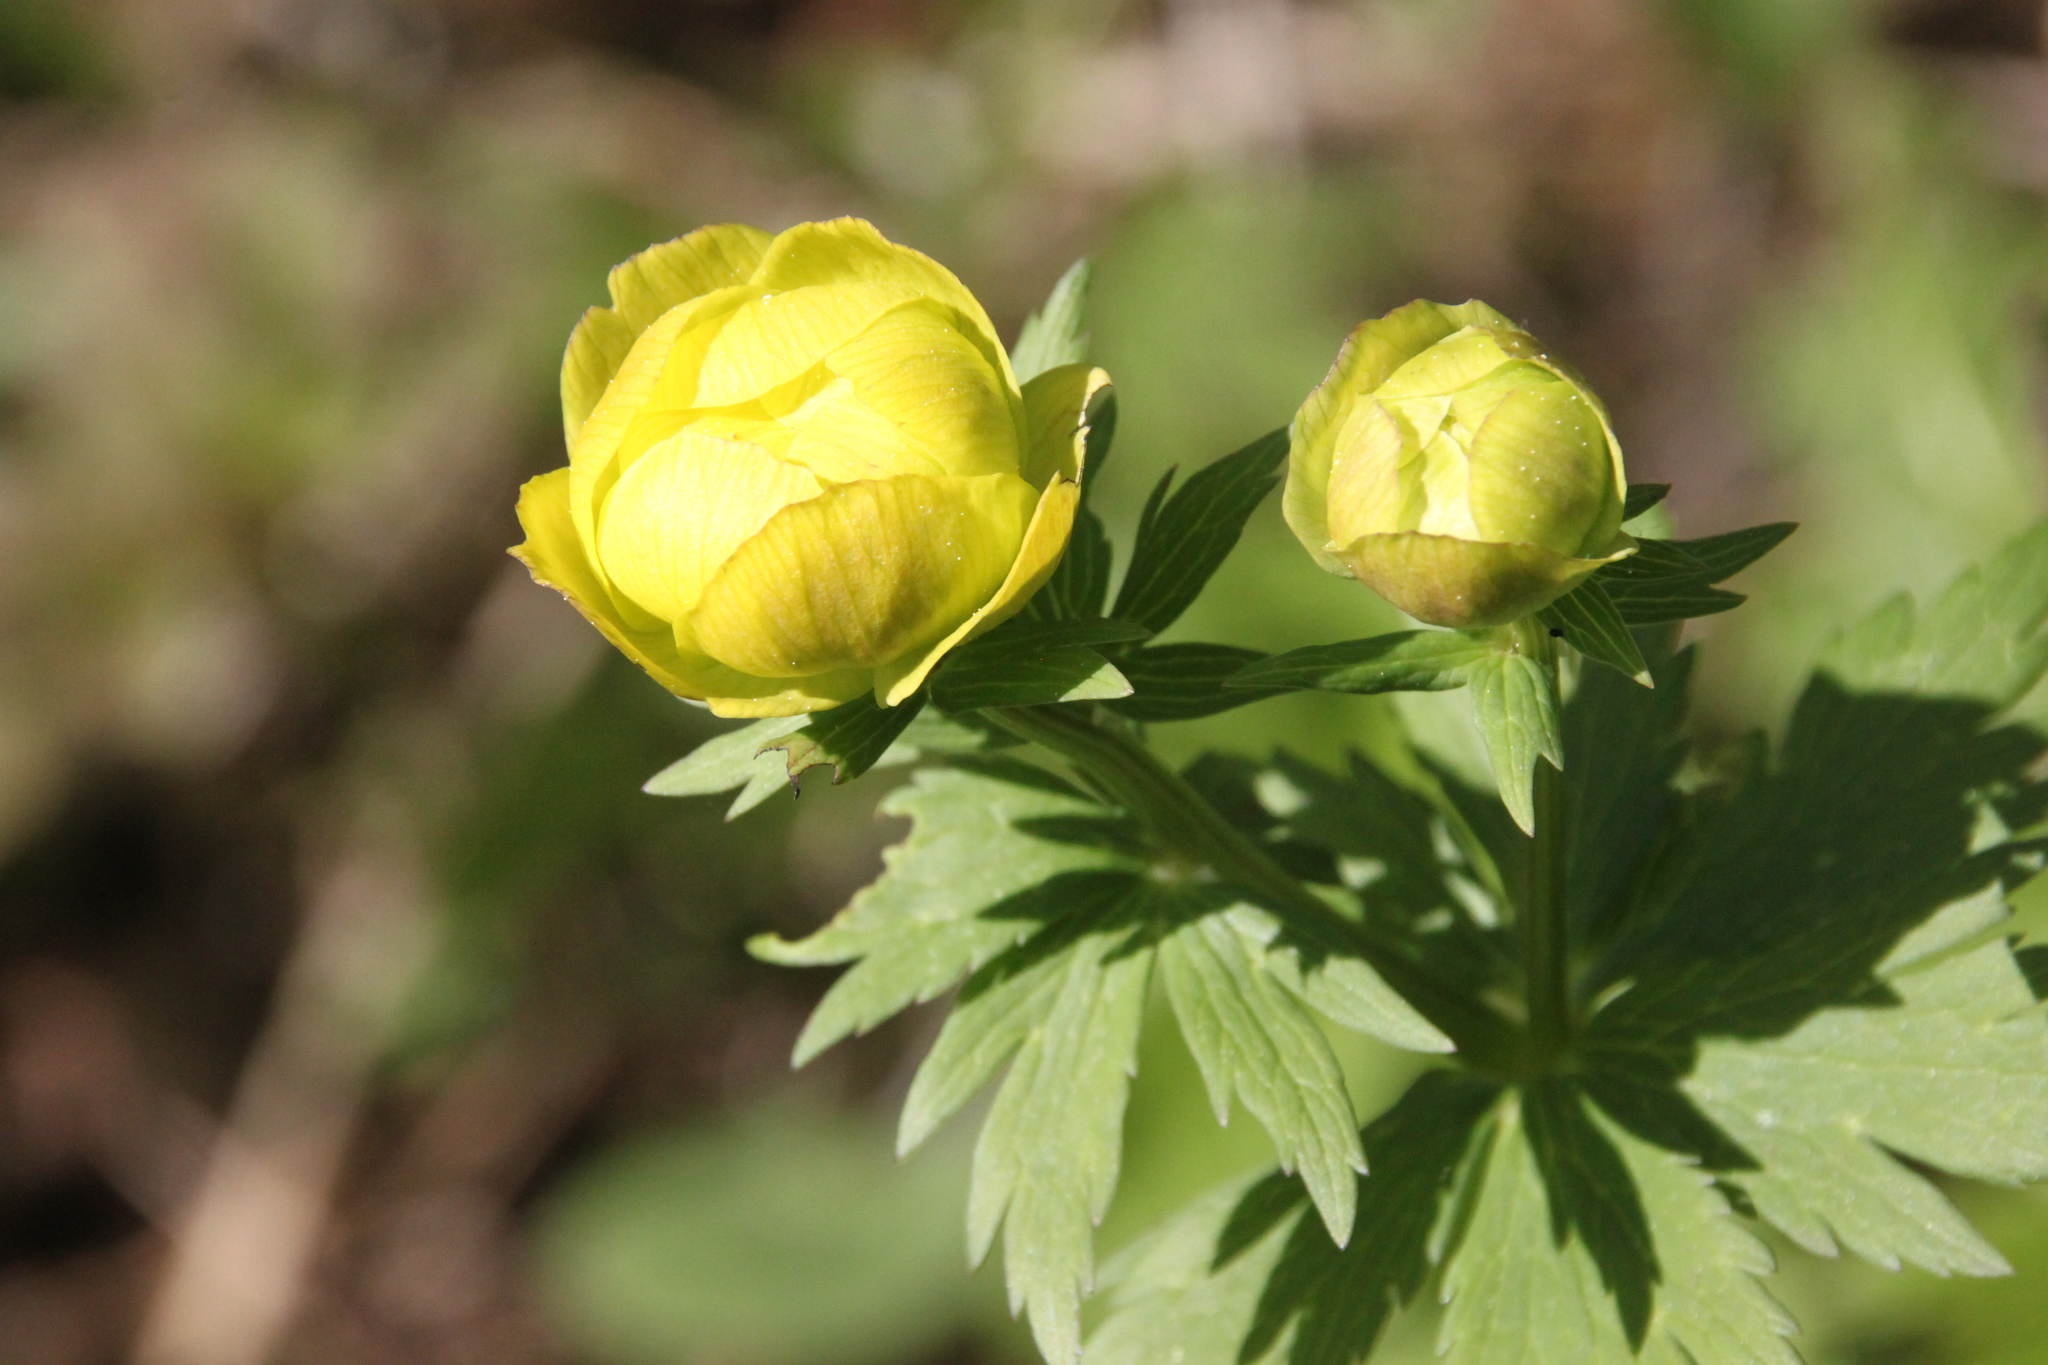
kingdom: Plantae
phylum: Tracheophyta
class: Magnoliopsida
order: Ranunculales
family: Ranunculaceae
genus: Trollius
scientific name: Trollius europaeus
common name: European globeflower
